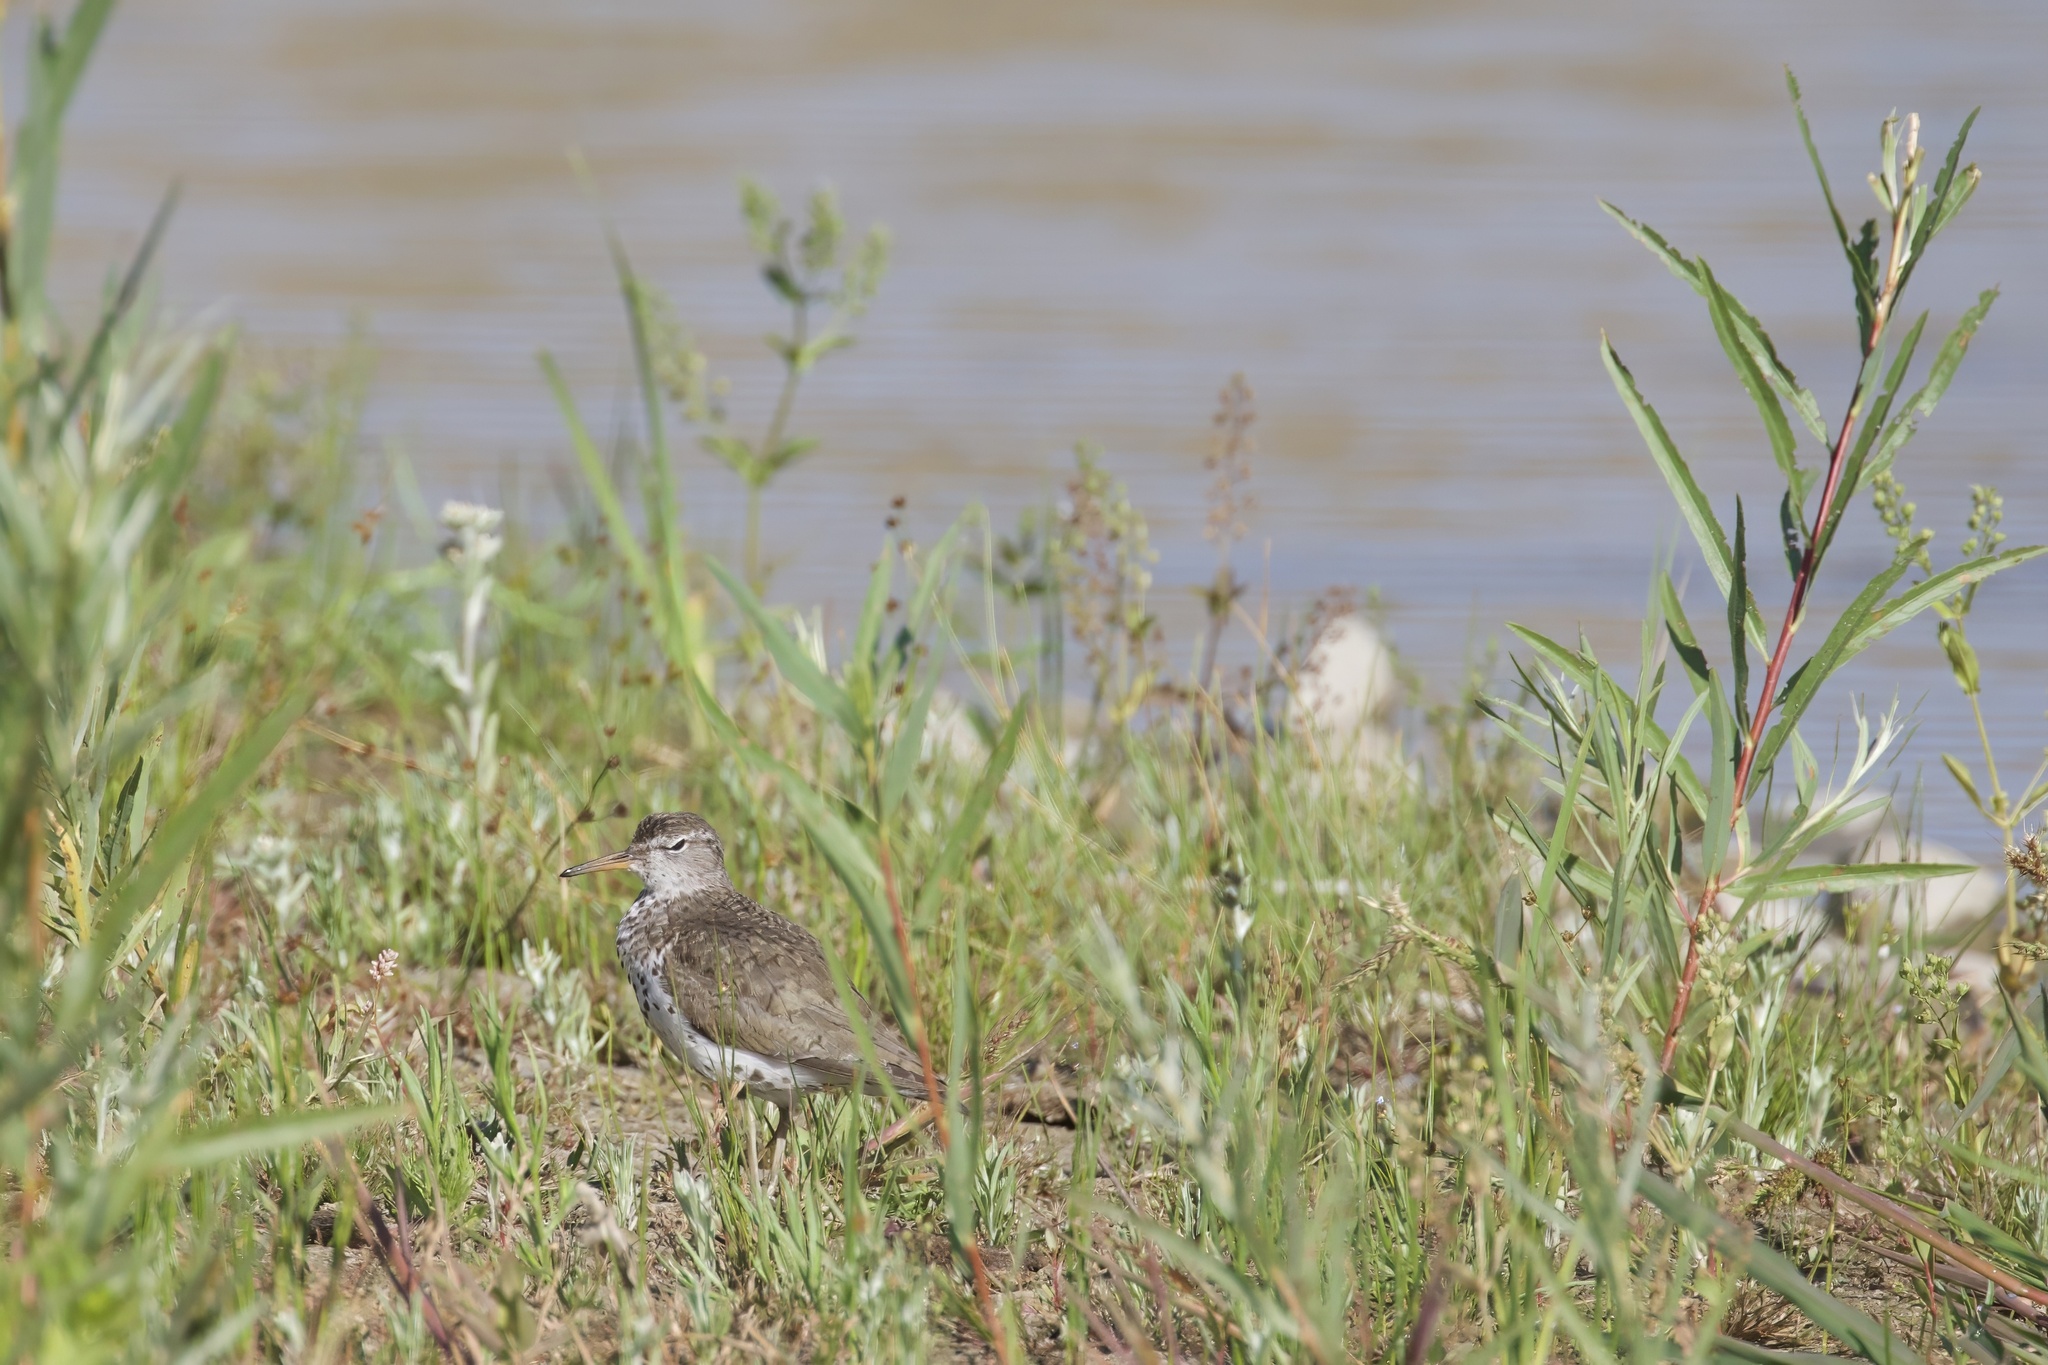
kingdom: Animalia
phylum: Chordata
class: Aves
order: Charadriiformes
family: Scolopacidae
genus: Actitis
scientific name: Actitis macularius
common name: Spotted sandpiper
